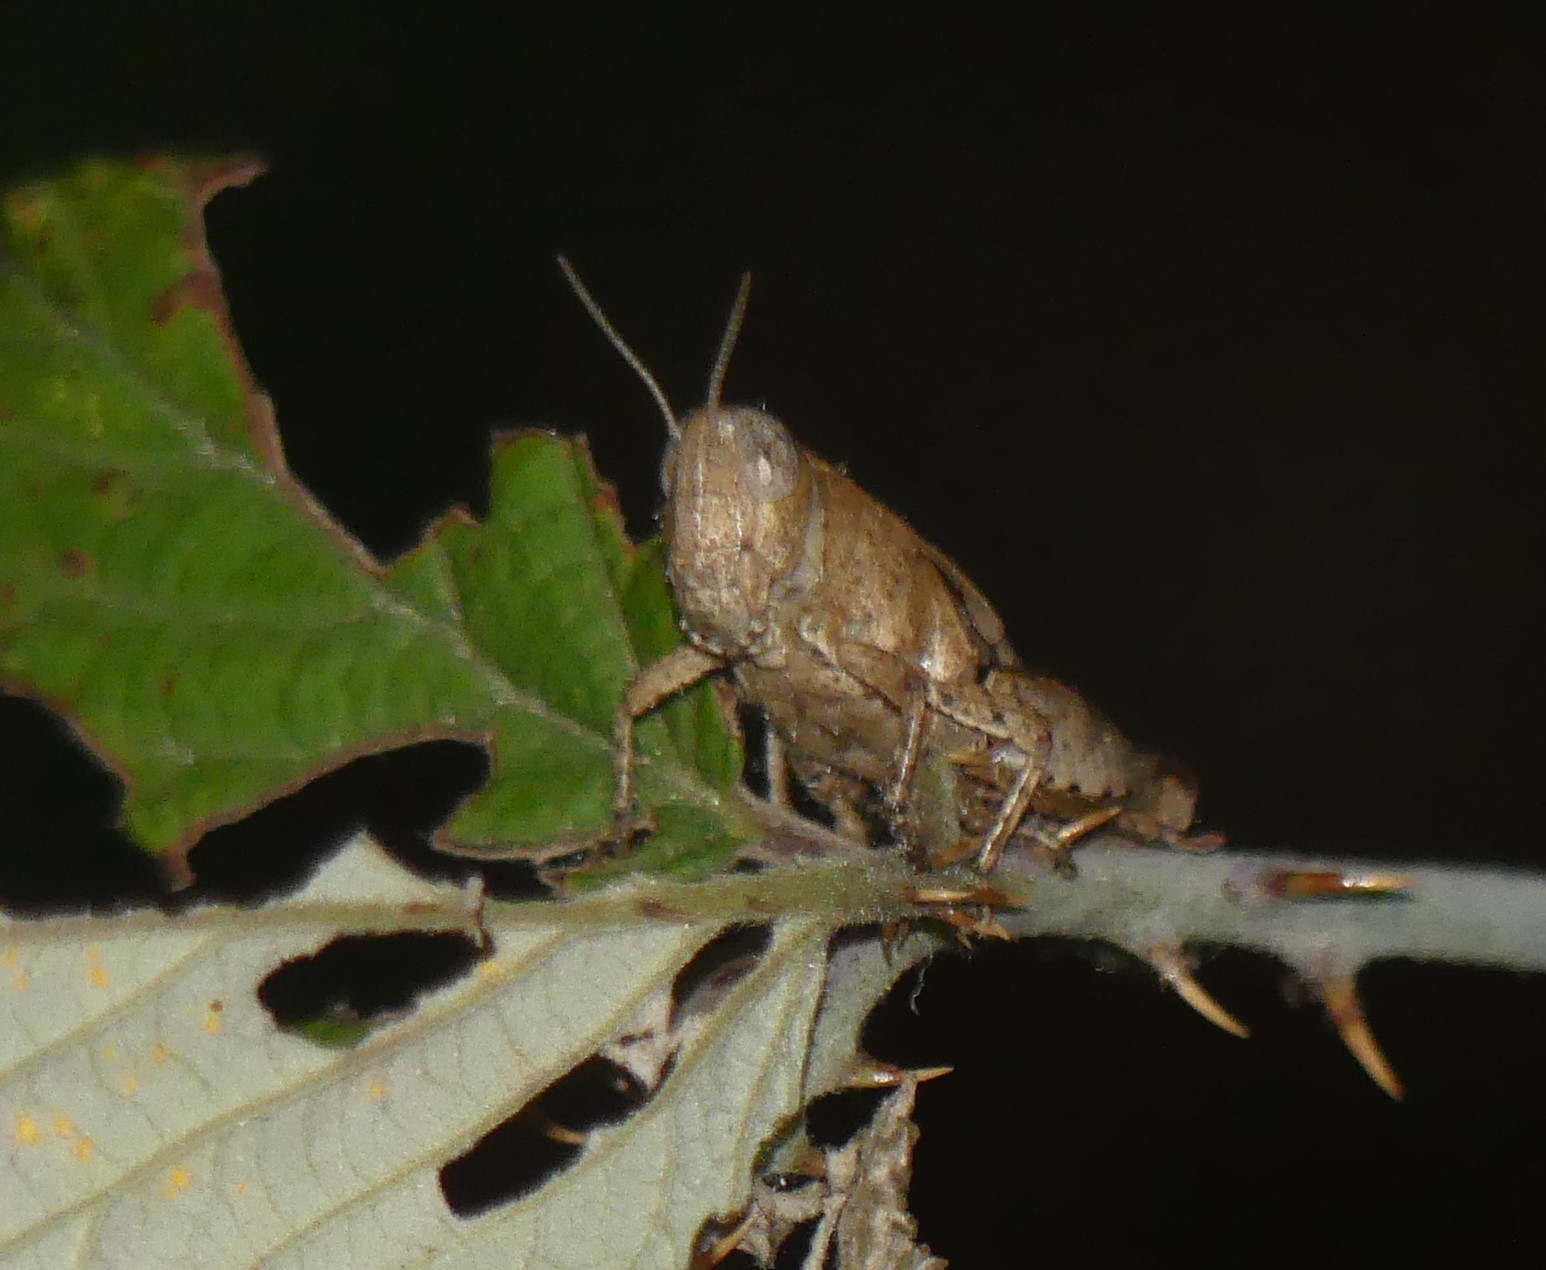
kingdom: Animalia
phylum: Arthropoda
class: Insecta
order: Orthoptera
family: Acrididae
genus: Pezotettix
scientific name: Pezotettix giornae
